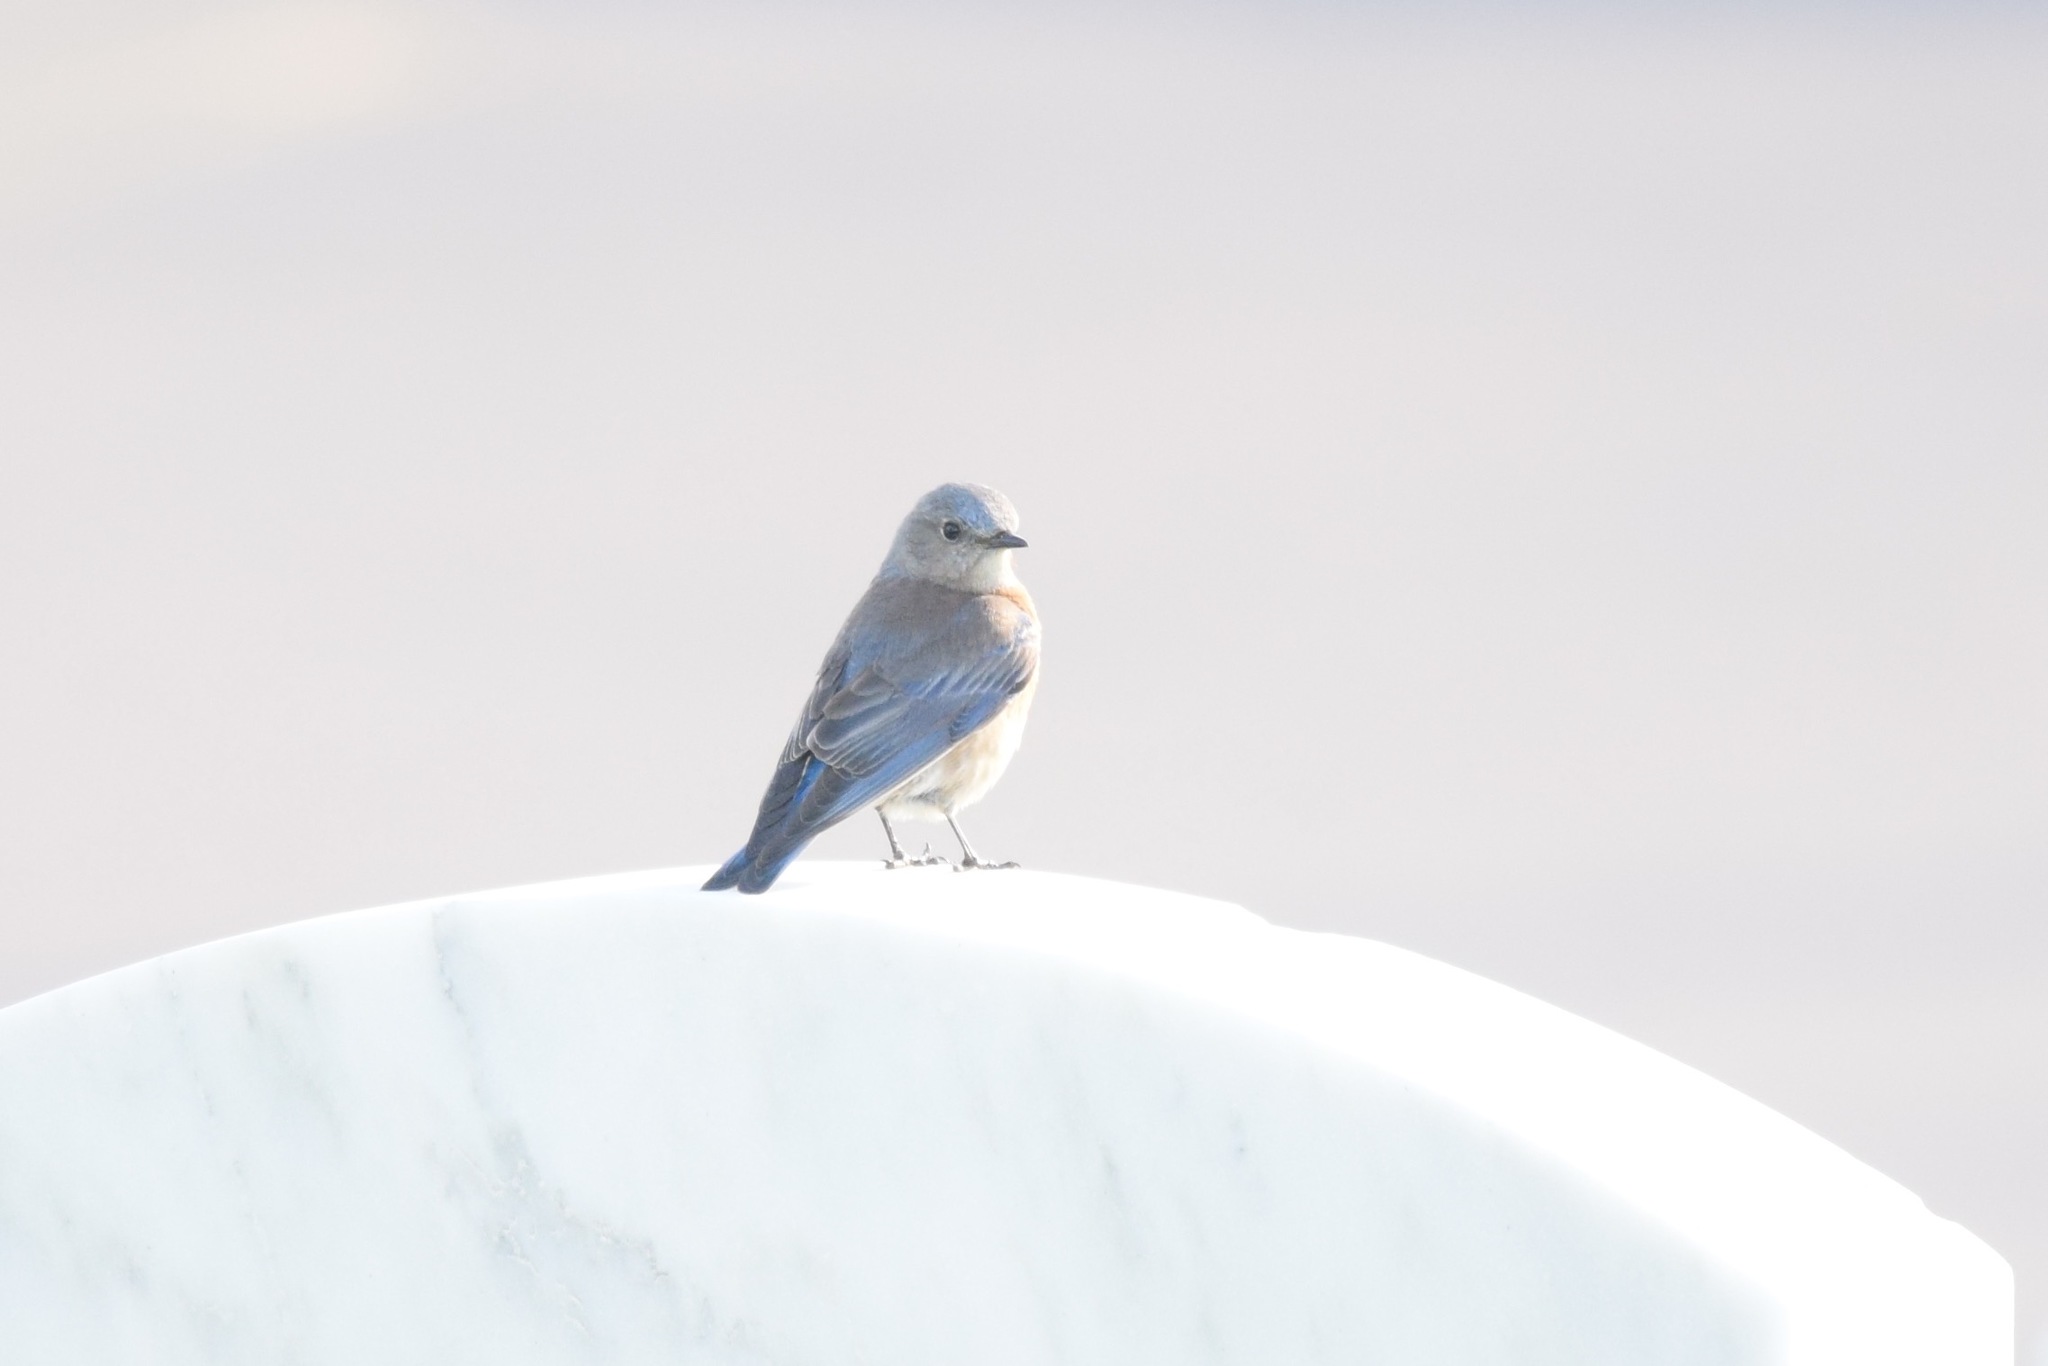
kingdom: Animalia
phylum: Chordata
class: Aves
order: Passeriformes
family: Turdidae
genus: Sialia
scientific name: Sialia mexicana
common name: Western bluebird
